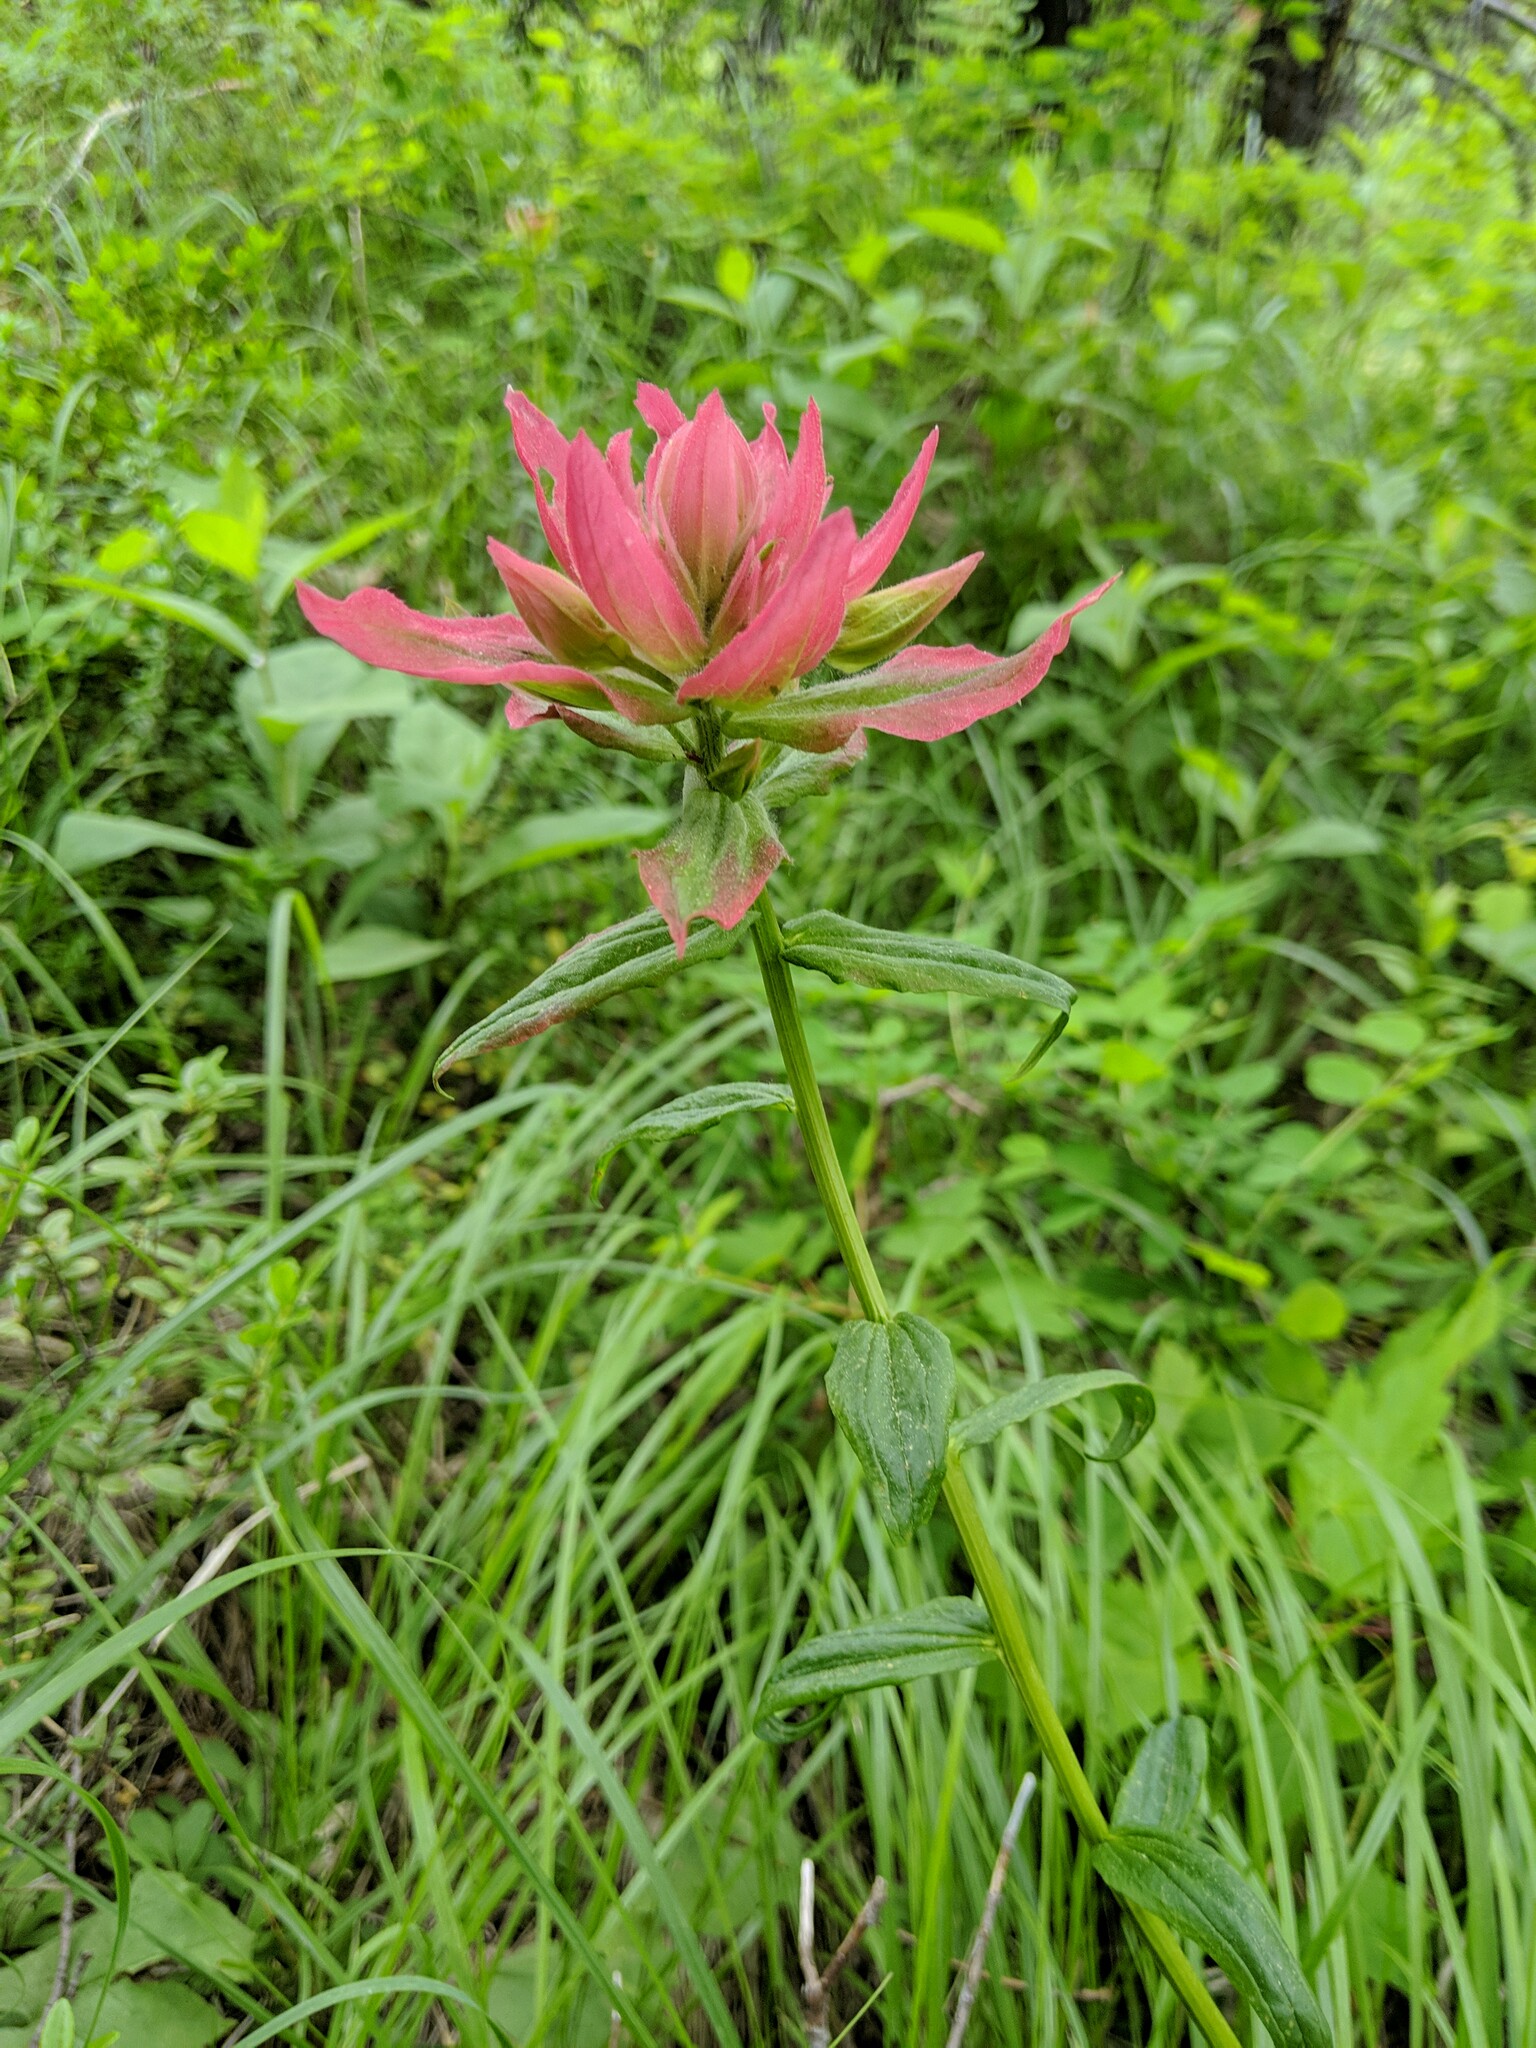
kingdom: Plantae
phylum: Tracheophyta
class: Magnoliopsida
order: Lamiales
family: Orobanchaceae
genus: Castilleja
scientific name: Castilleja miniata
